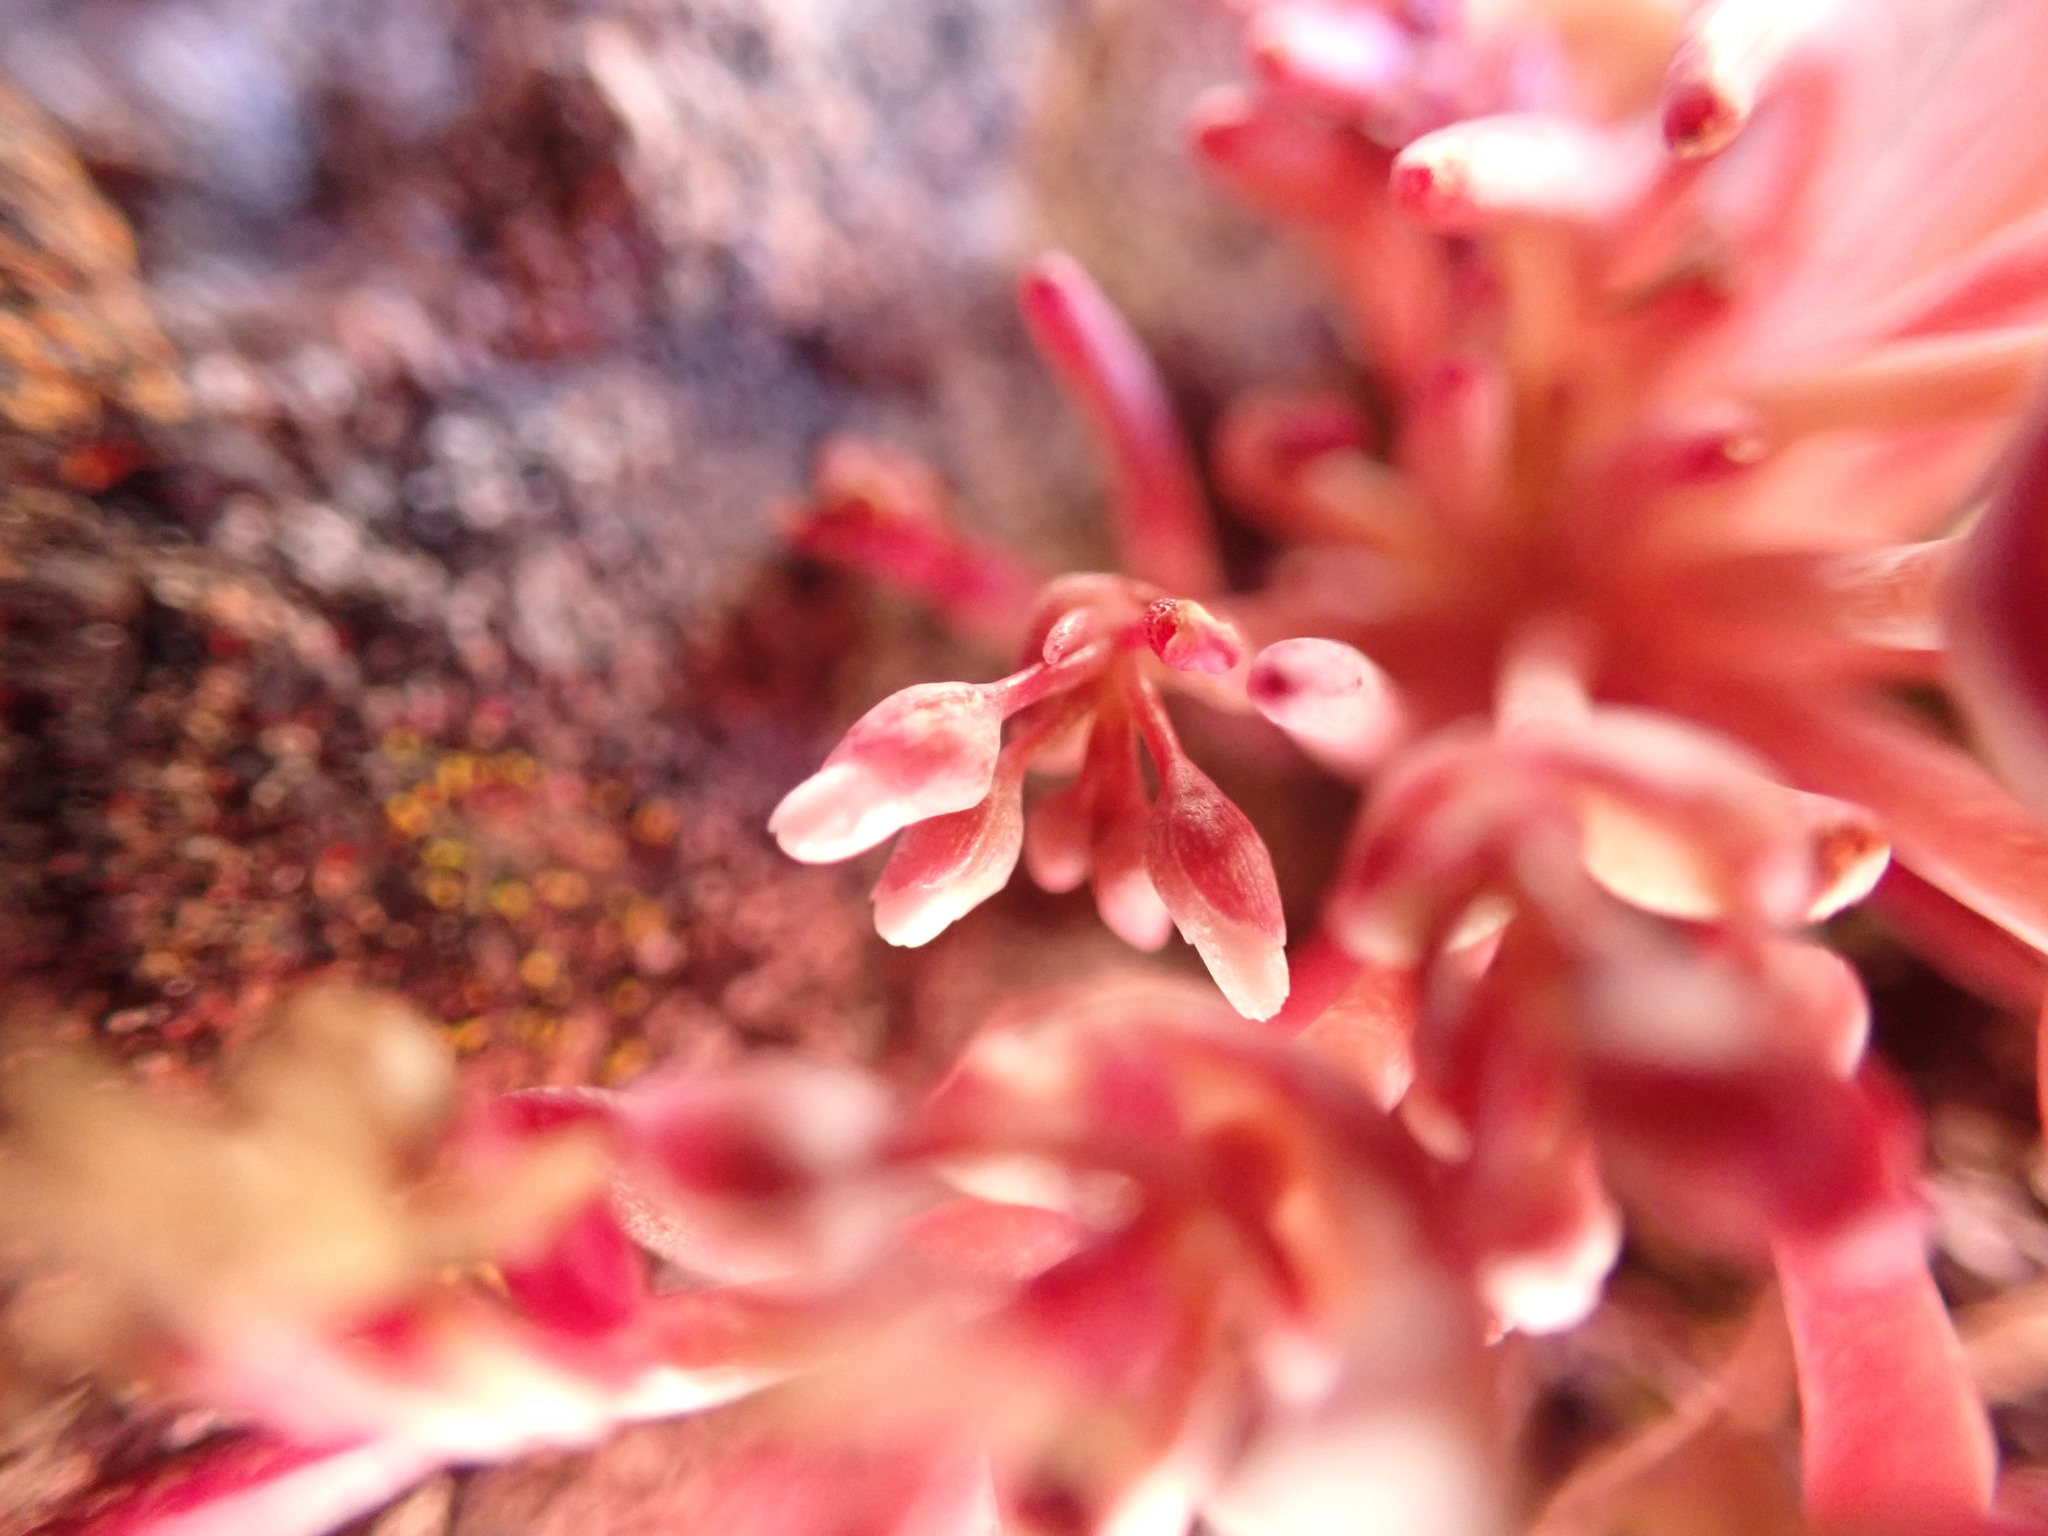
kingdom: Plantae
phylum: Tracheophyta
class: Magnoliopsida
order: Caryophyllales
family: Montiaceae
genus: Claytonia
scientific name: Claytonia exigua
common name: Pale spring beauty
